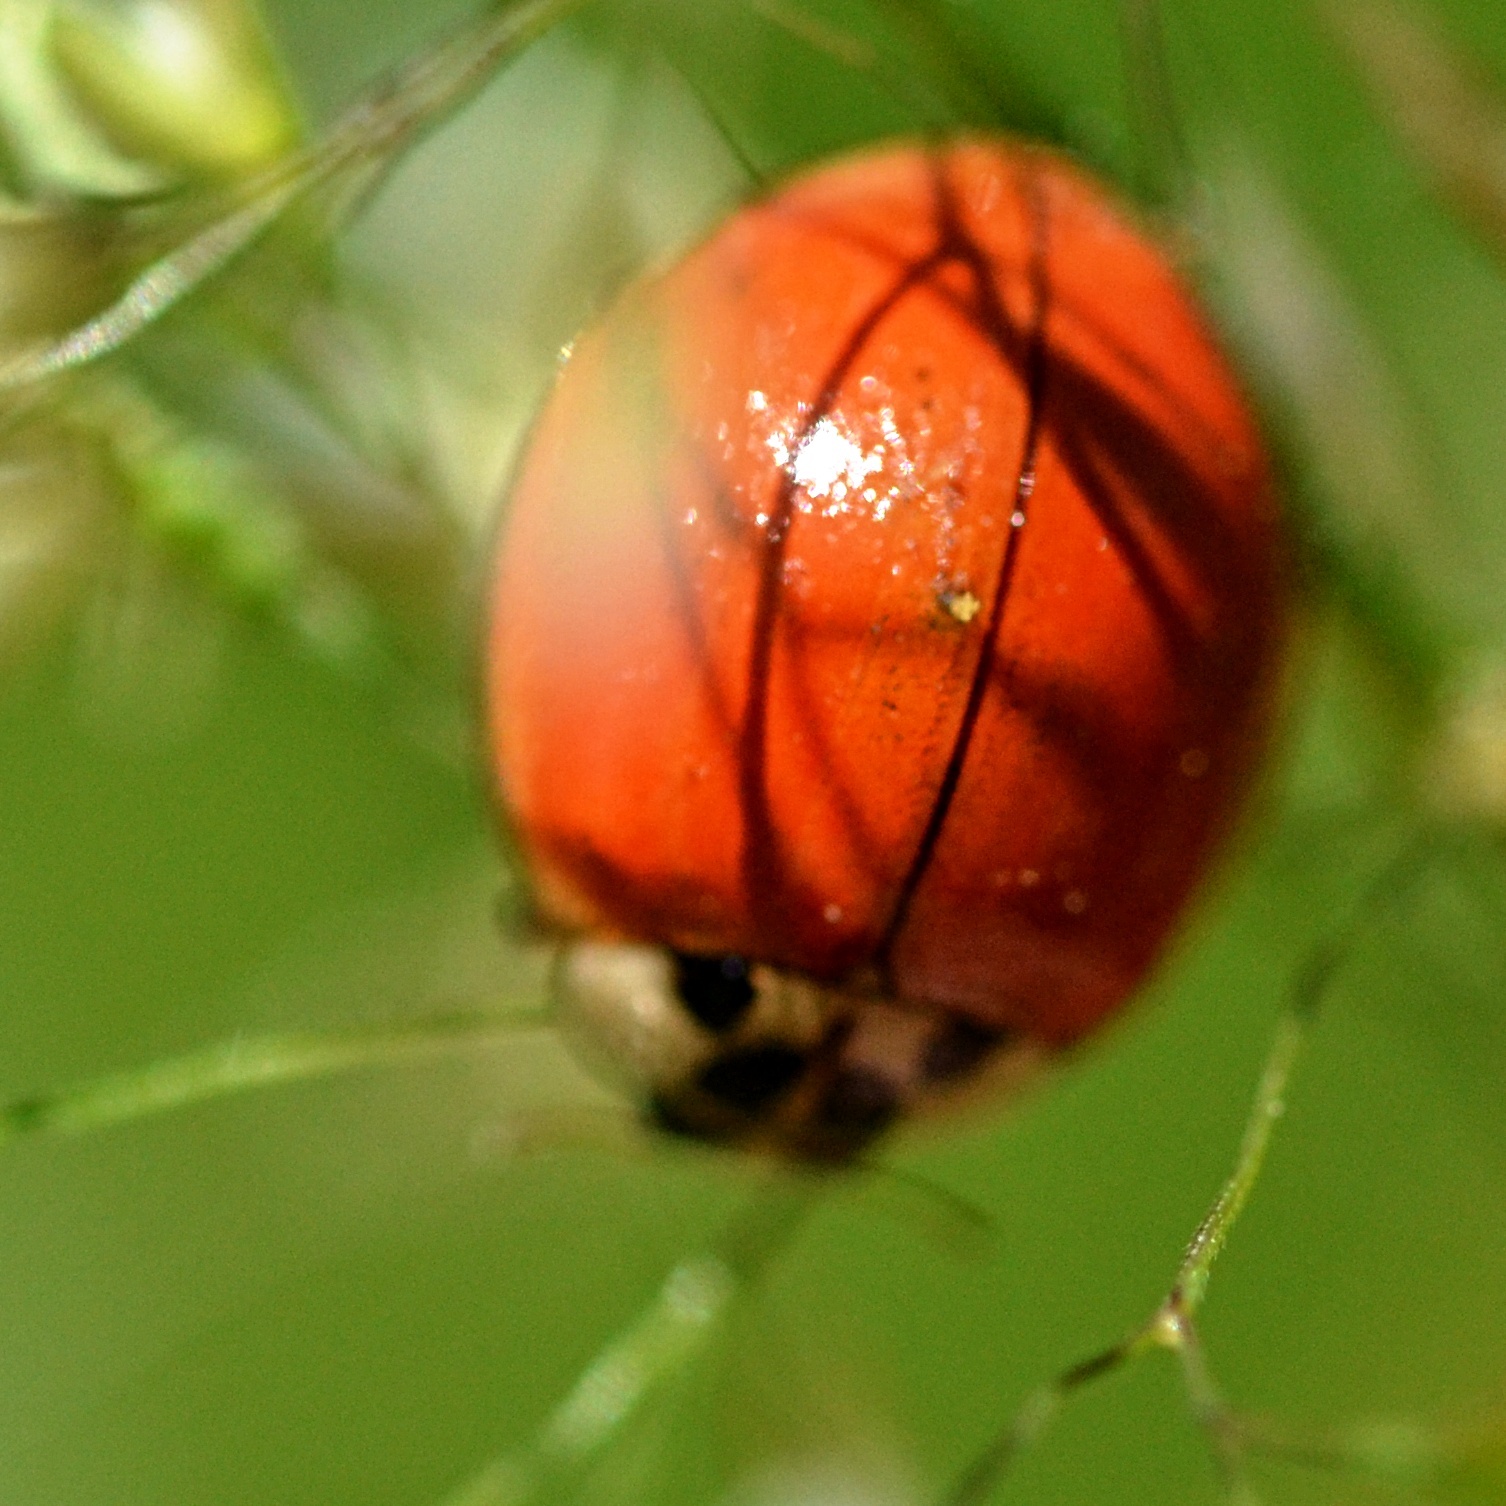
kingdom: Animalia
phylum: Arthropoda
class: Insecta
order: Coleoptera
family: Coccinellidae
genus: Harmonia
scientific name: Harmonia axyridis
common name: Harlequin ladybird
